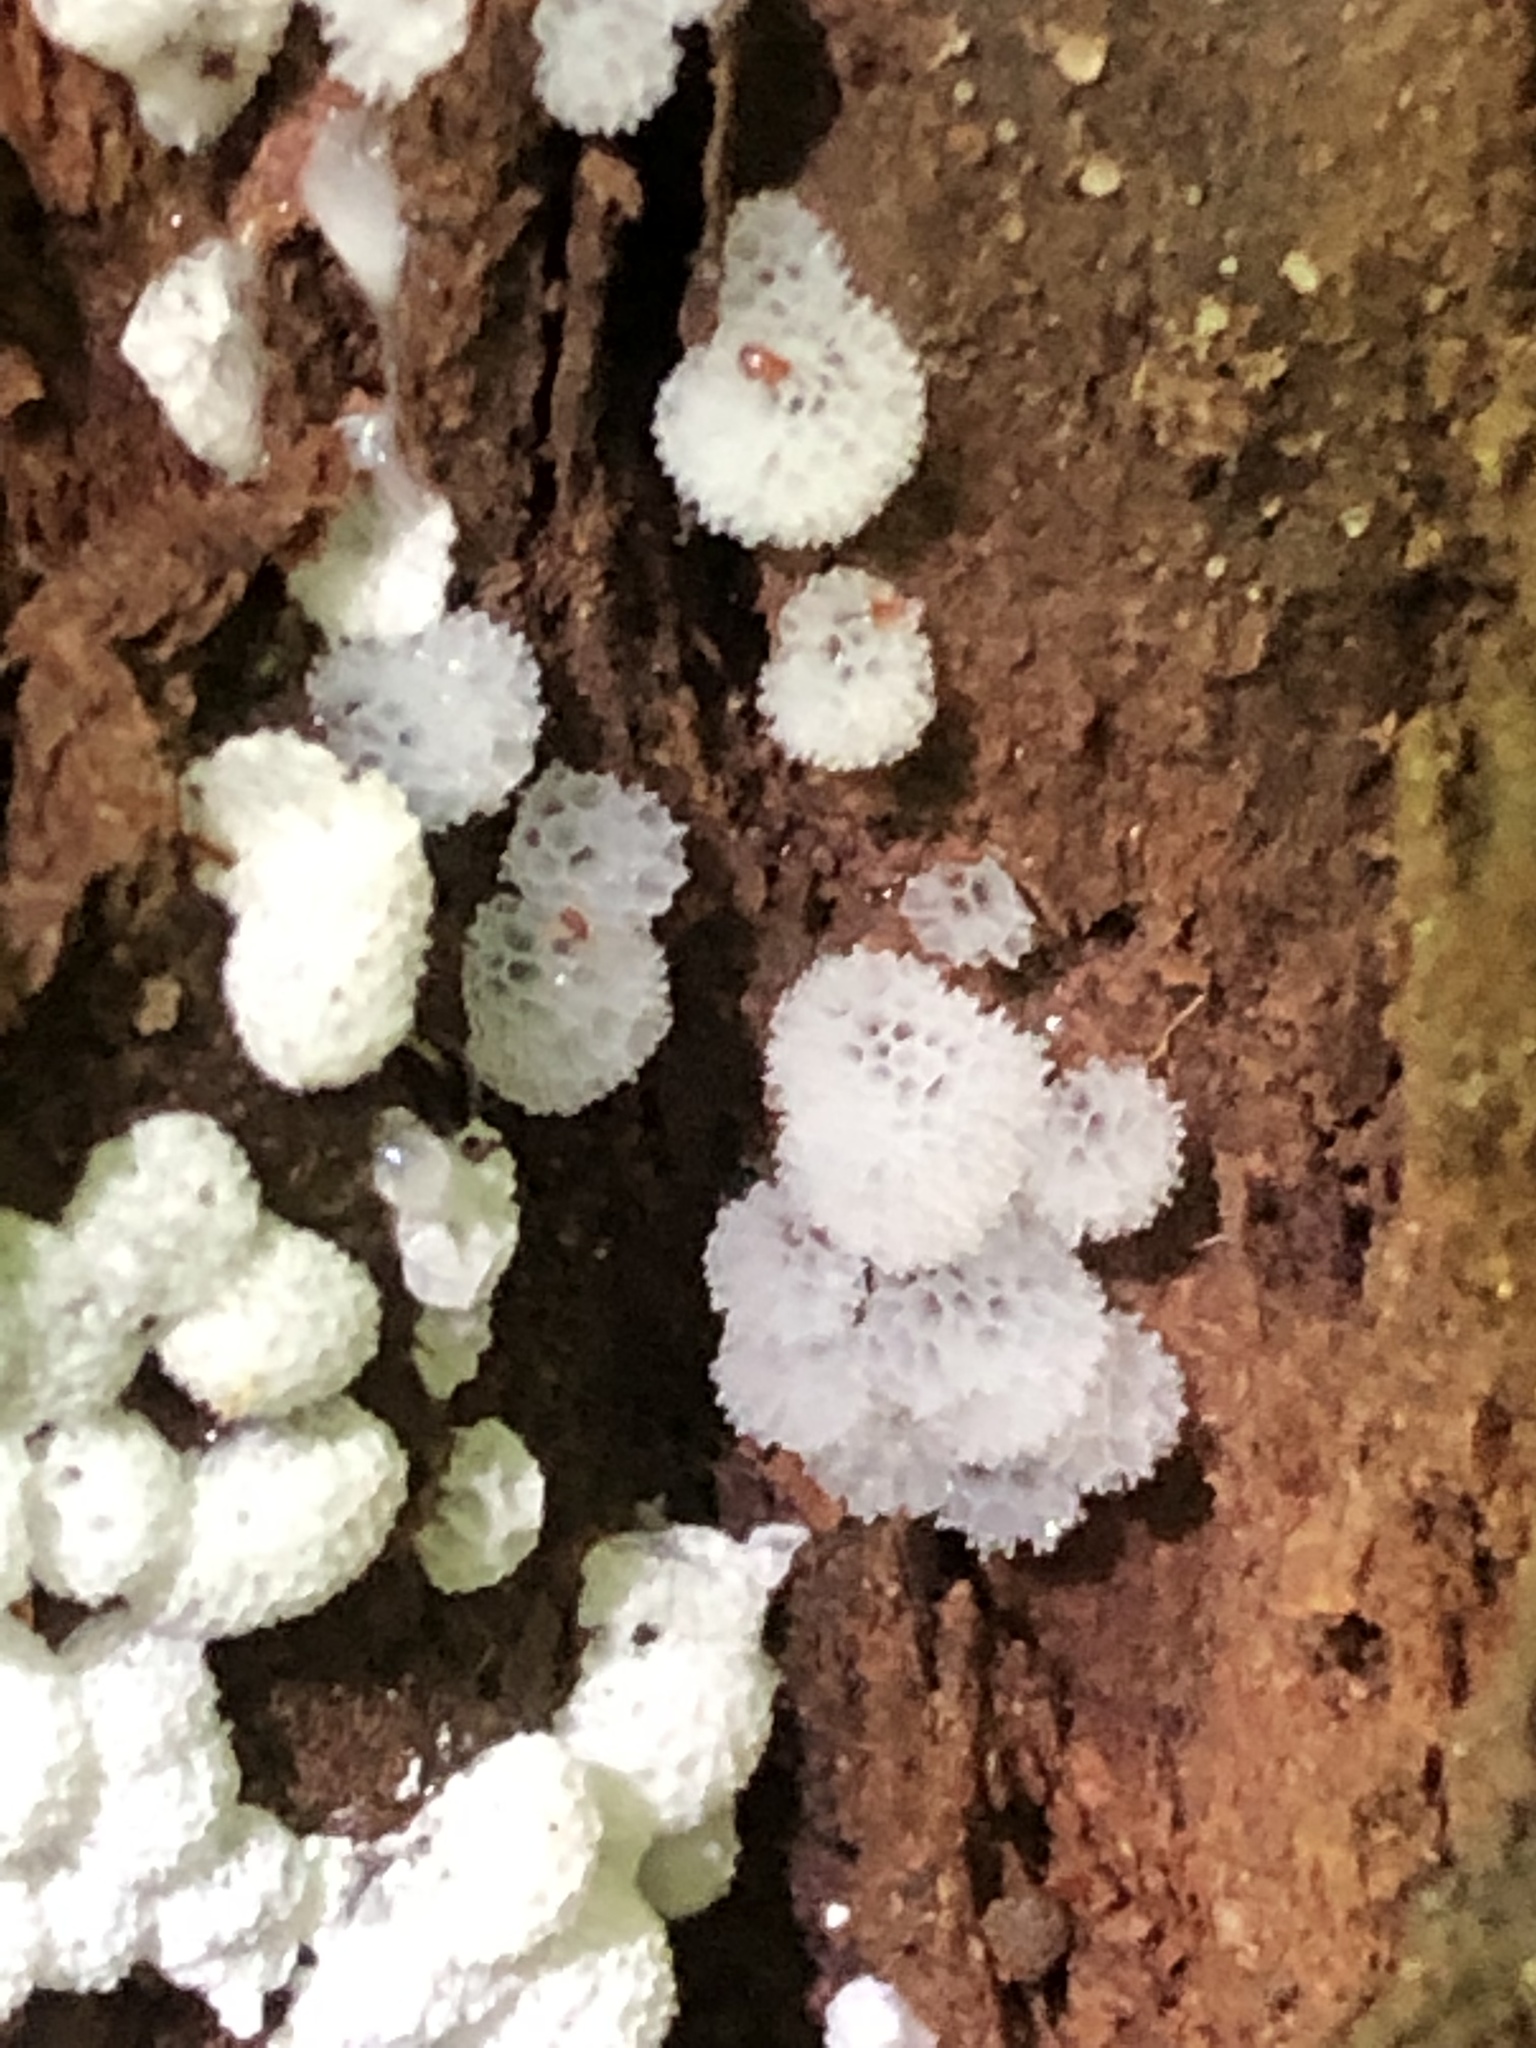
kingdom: Protozoa
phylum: Mycetozoa
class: Protosteliomycetes
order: Ceratiomyxales
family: Ceratiomyxaceae
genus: Ceratiomyxa
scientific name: Ceratiomyxa fruticulosa
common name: Honeycomb coral slime mold
